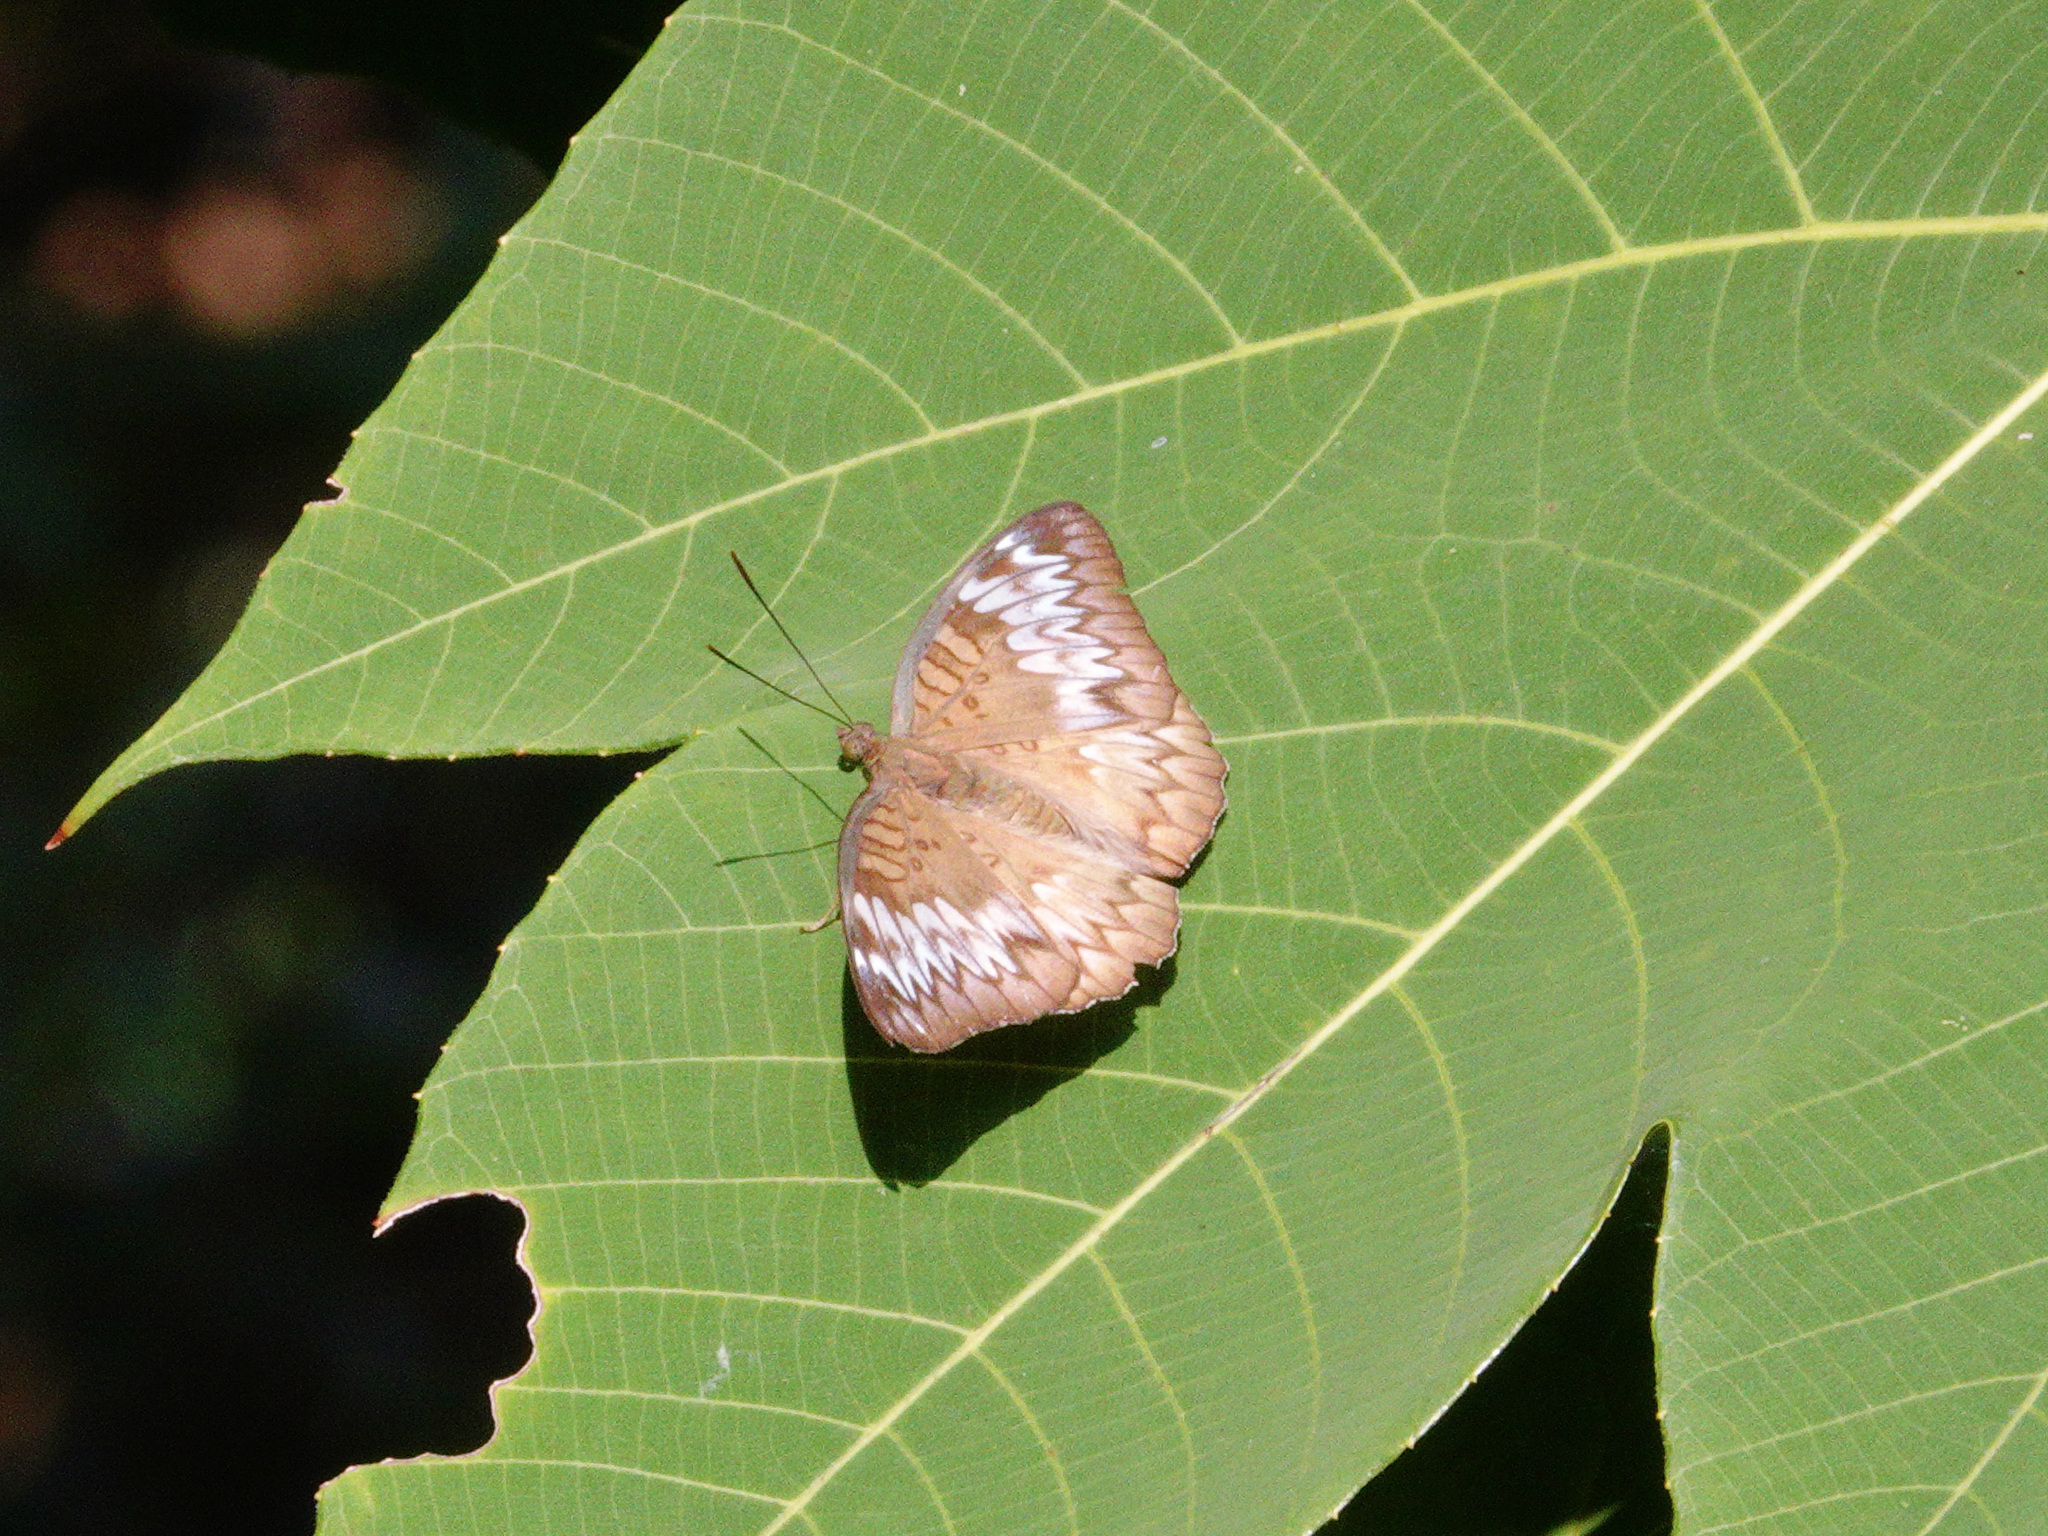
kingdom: Animalia
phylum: Arthropoda
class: Insecta
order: Lepidoptera
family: Nymphalidae
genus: Euthalia
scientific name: Euthalia monina
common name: Powdered baron
